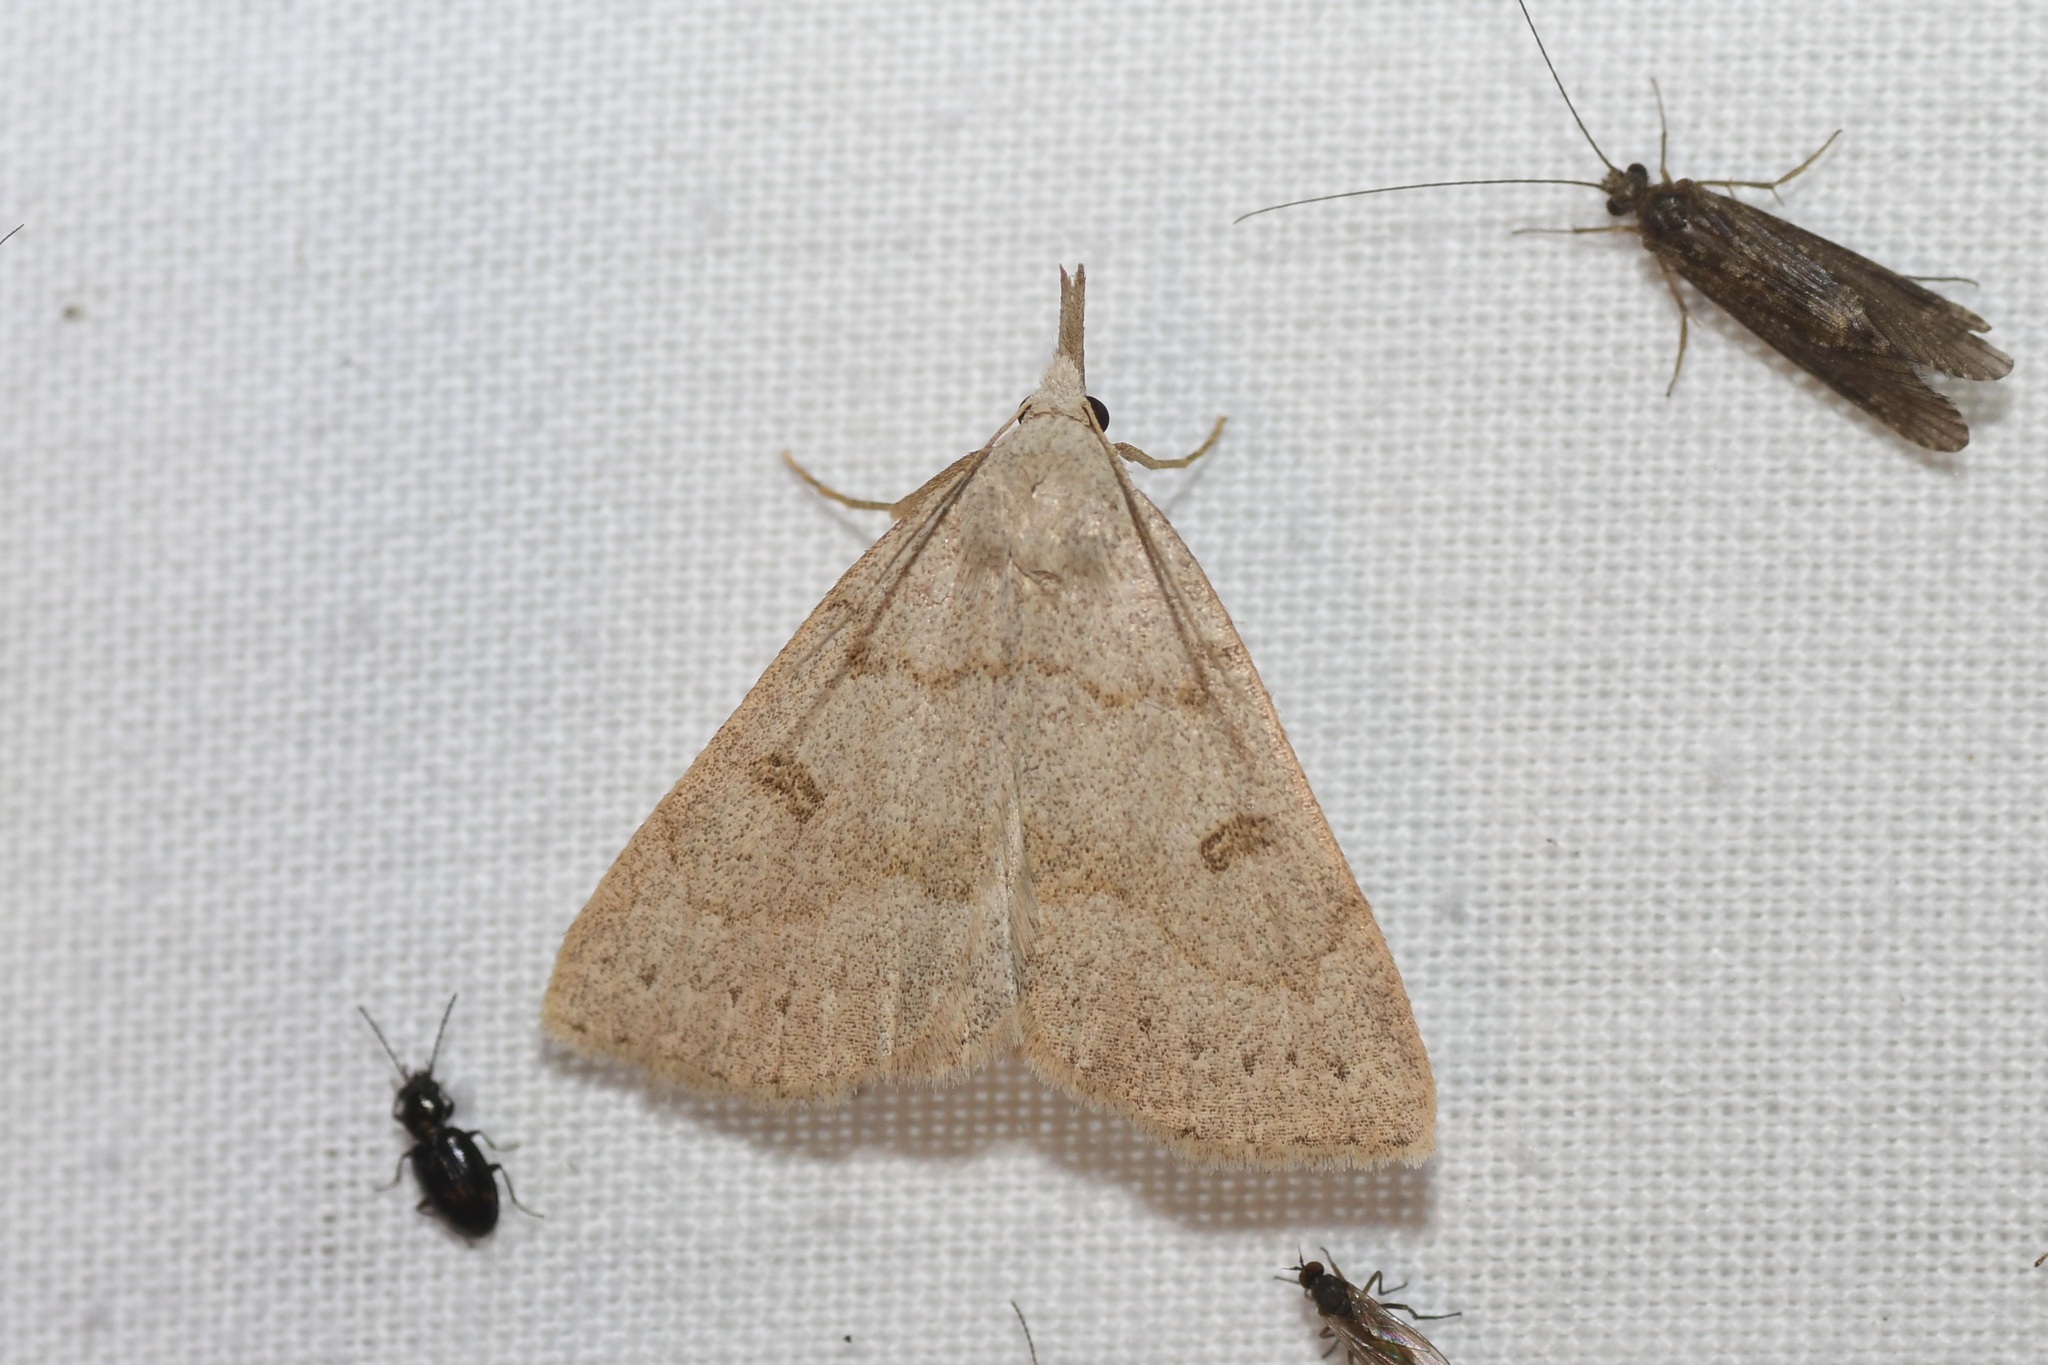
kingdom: Animalia
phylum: Arthropoda
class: Insecta
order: Lepidoptera
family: Erebidae
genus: Macrochilo
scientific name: Macrochilo morbidalis
